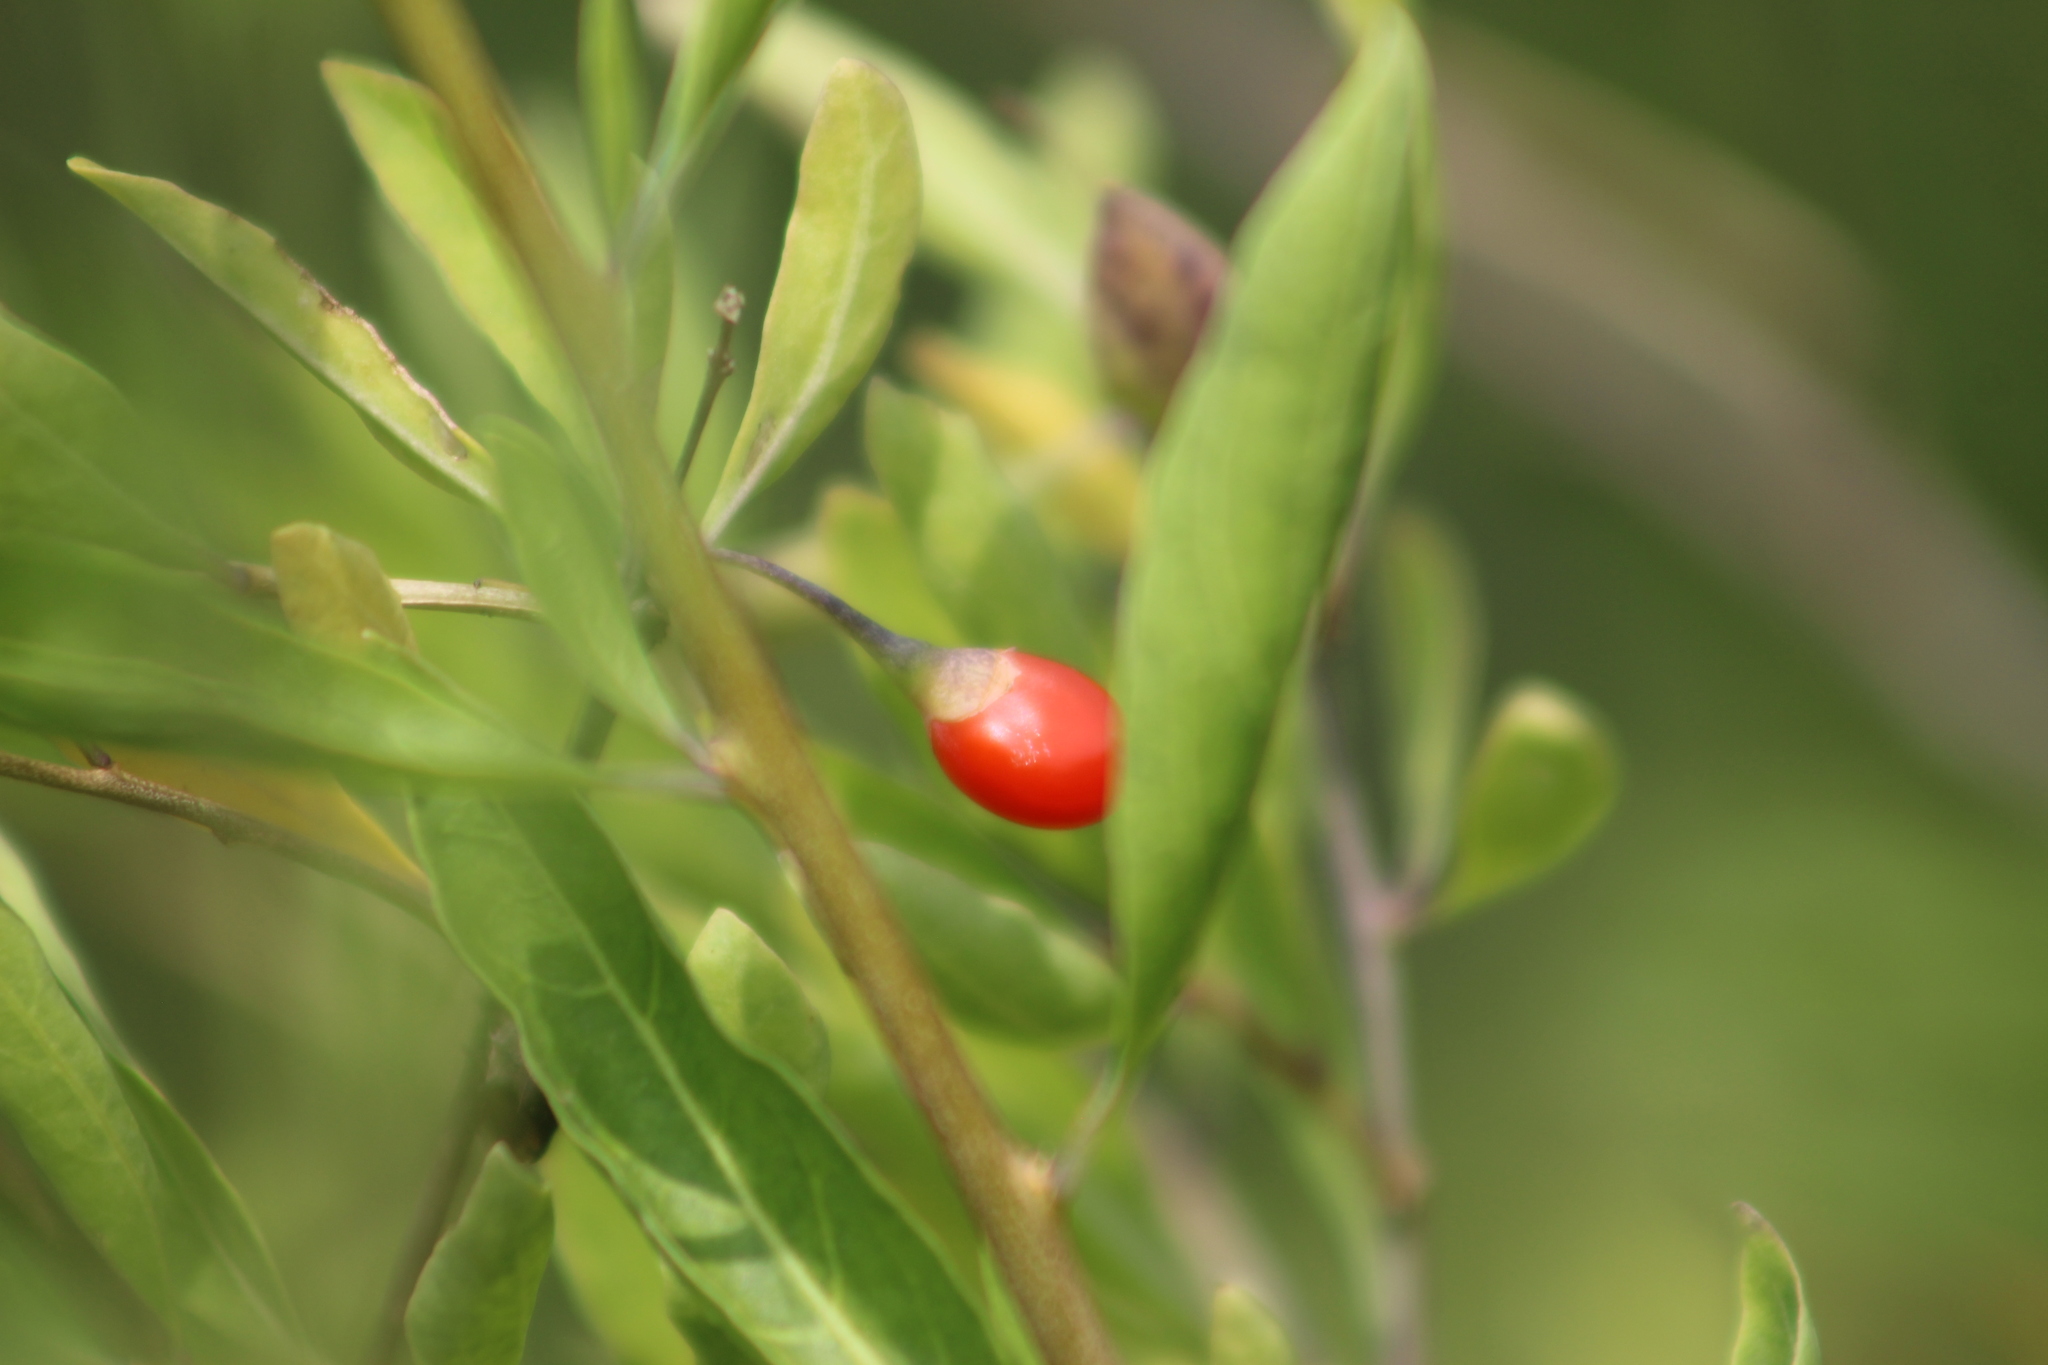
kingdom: Plantae
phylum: Tracheophyta
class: Magnoliopsida
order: Solanales
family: Solanaceae
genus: Lycium
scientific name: Lycium barbarum
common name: Duke of argyll's teaplant
